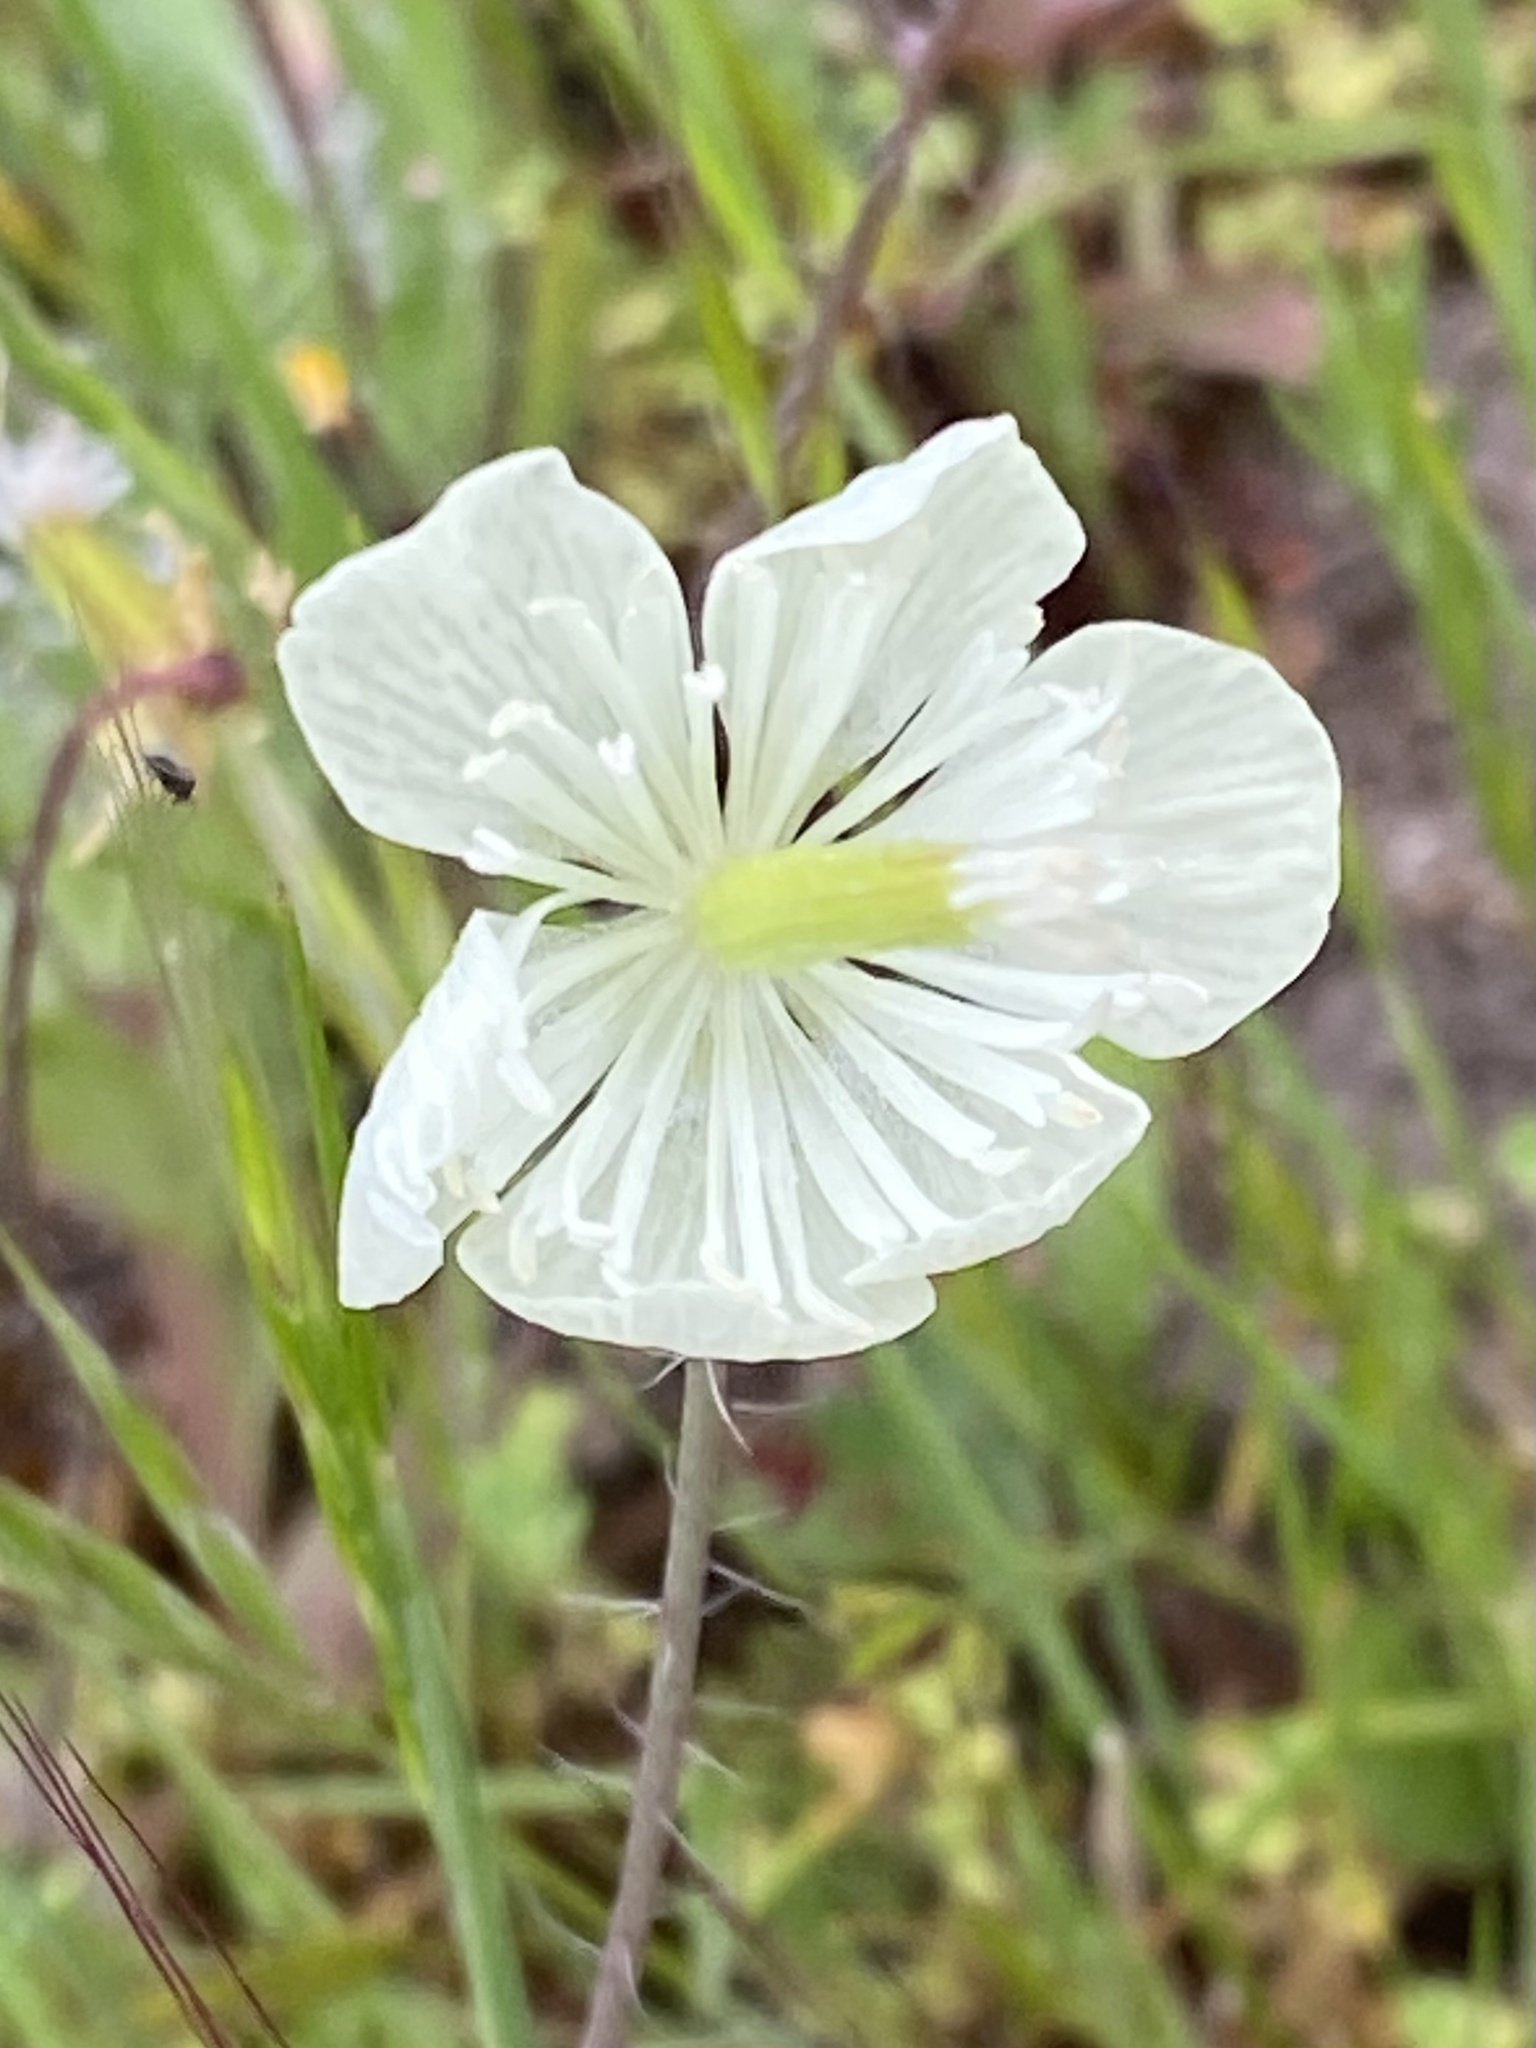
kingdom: Plantae
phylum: Tracheophyta
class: Magnoliopsida
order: Ranunculales
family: Papaveraceae
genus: Platystemon
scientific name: Platystemon californicus
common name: Cream-cups
